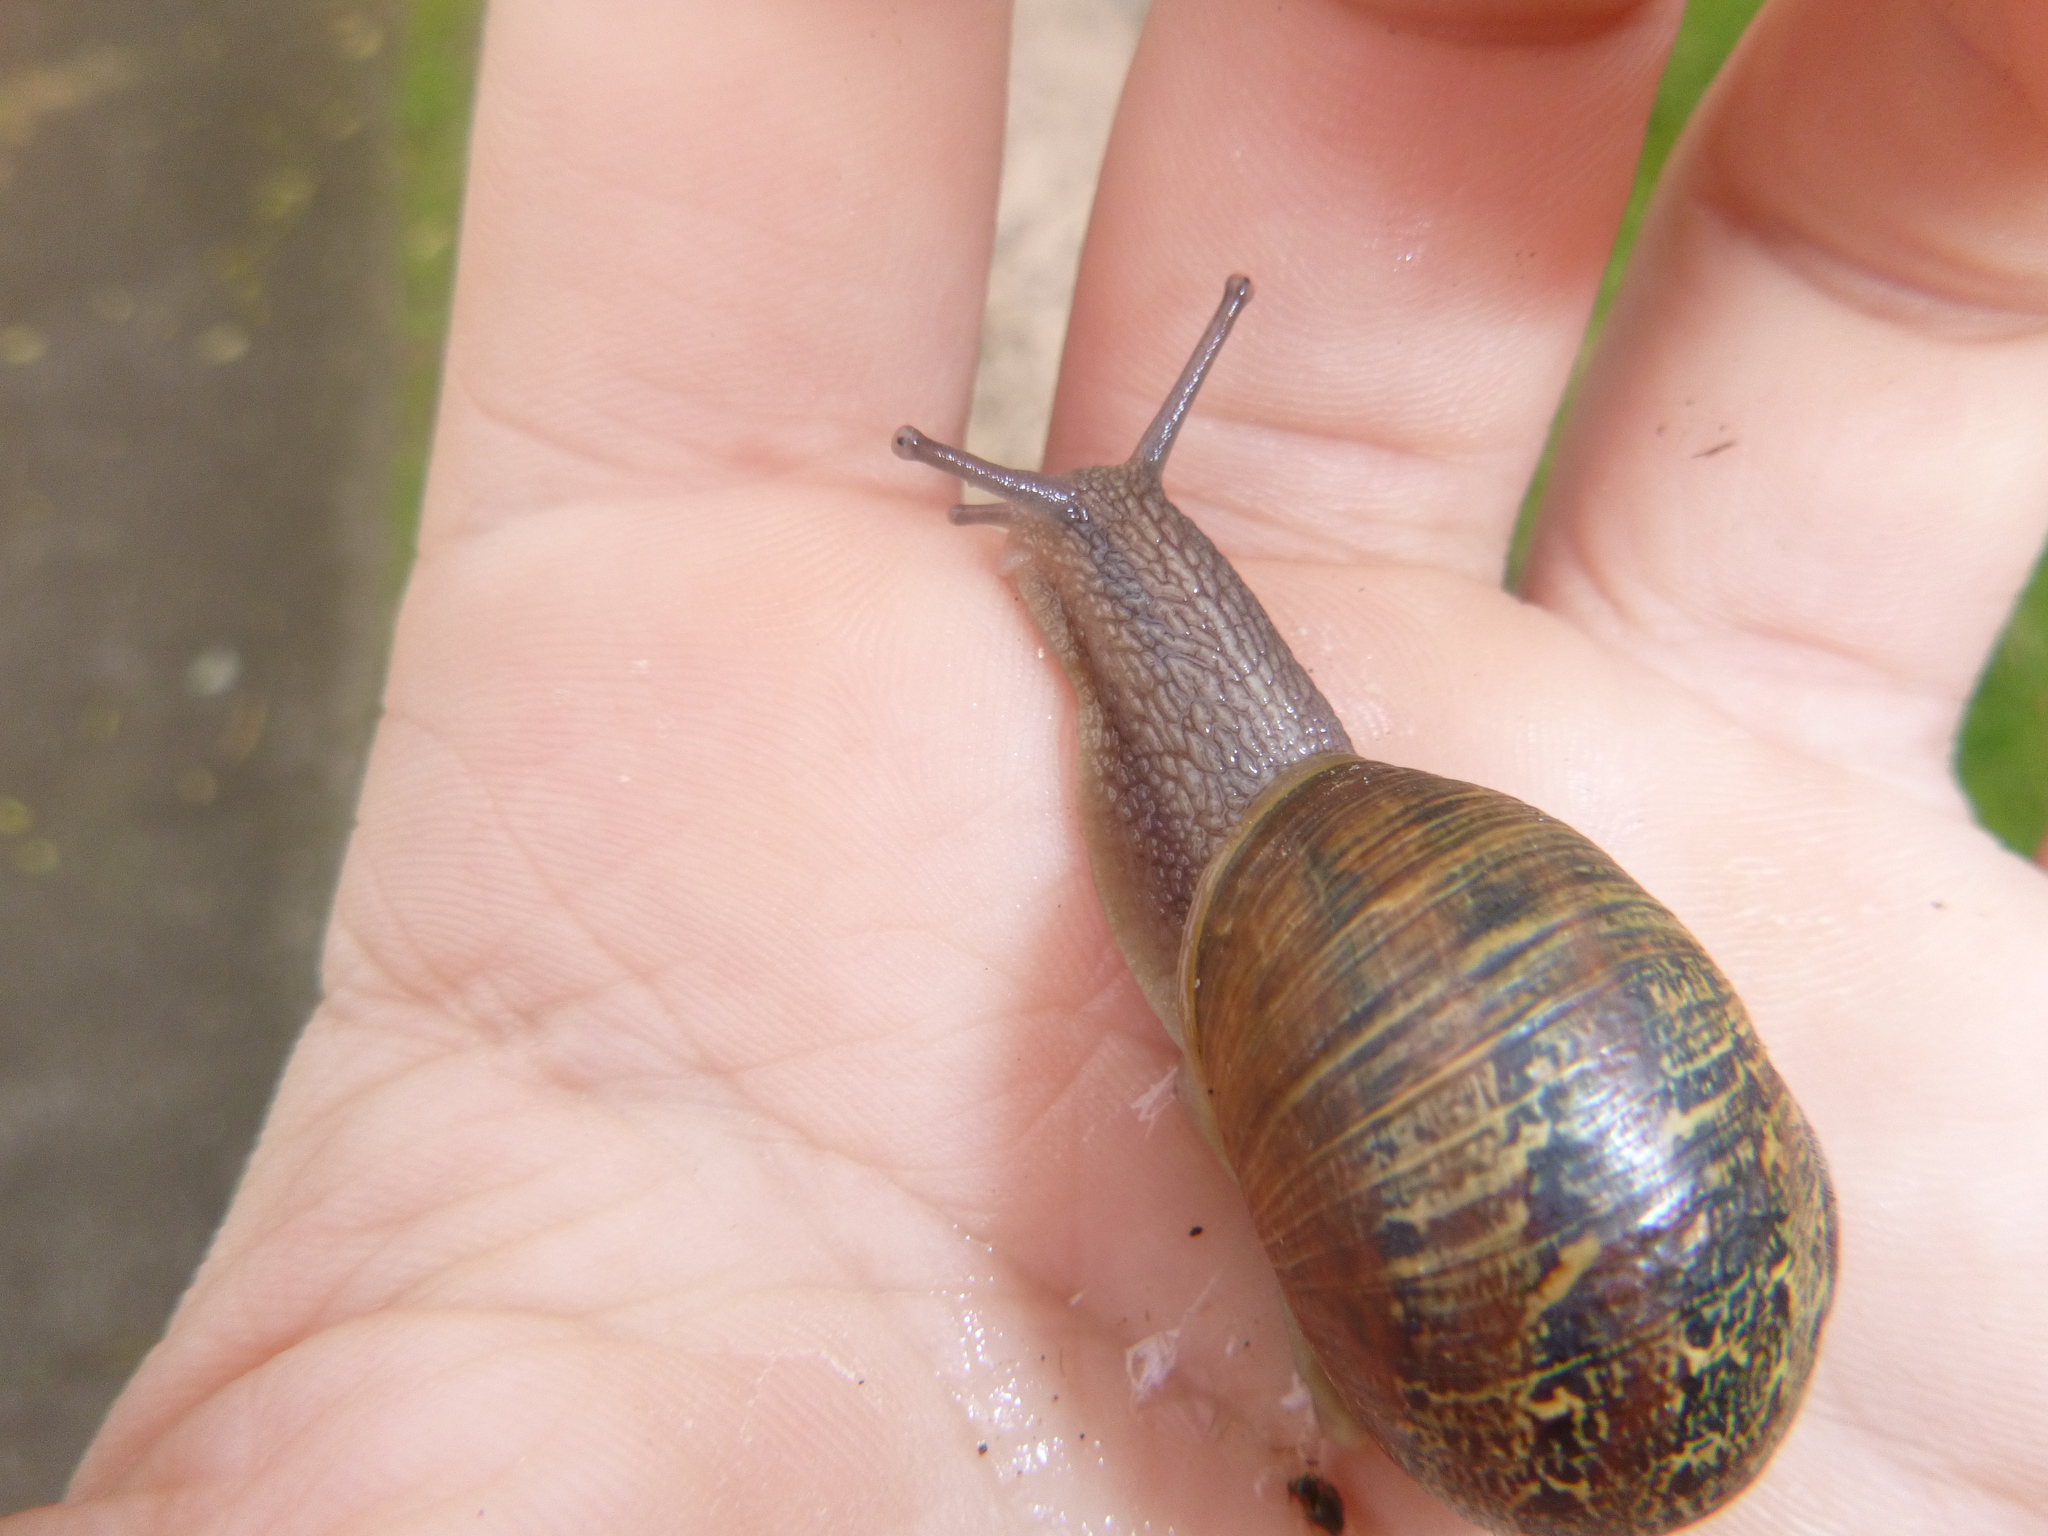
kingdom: Animalia
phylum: Mollusca
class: Gastropoda
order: Stylommatophora
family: Helicidae
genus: Cornu
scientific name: Cornu aspersum
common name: Brown garden snail
